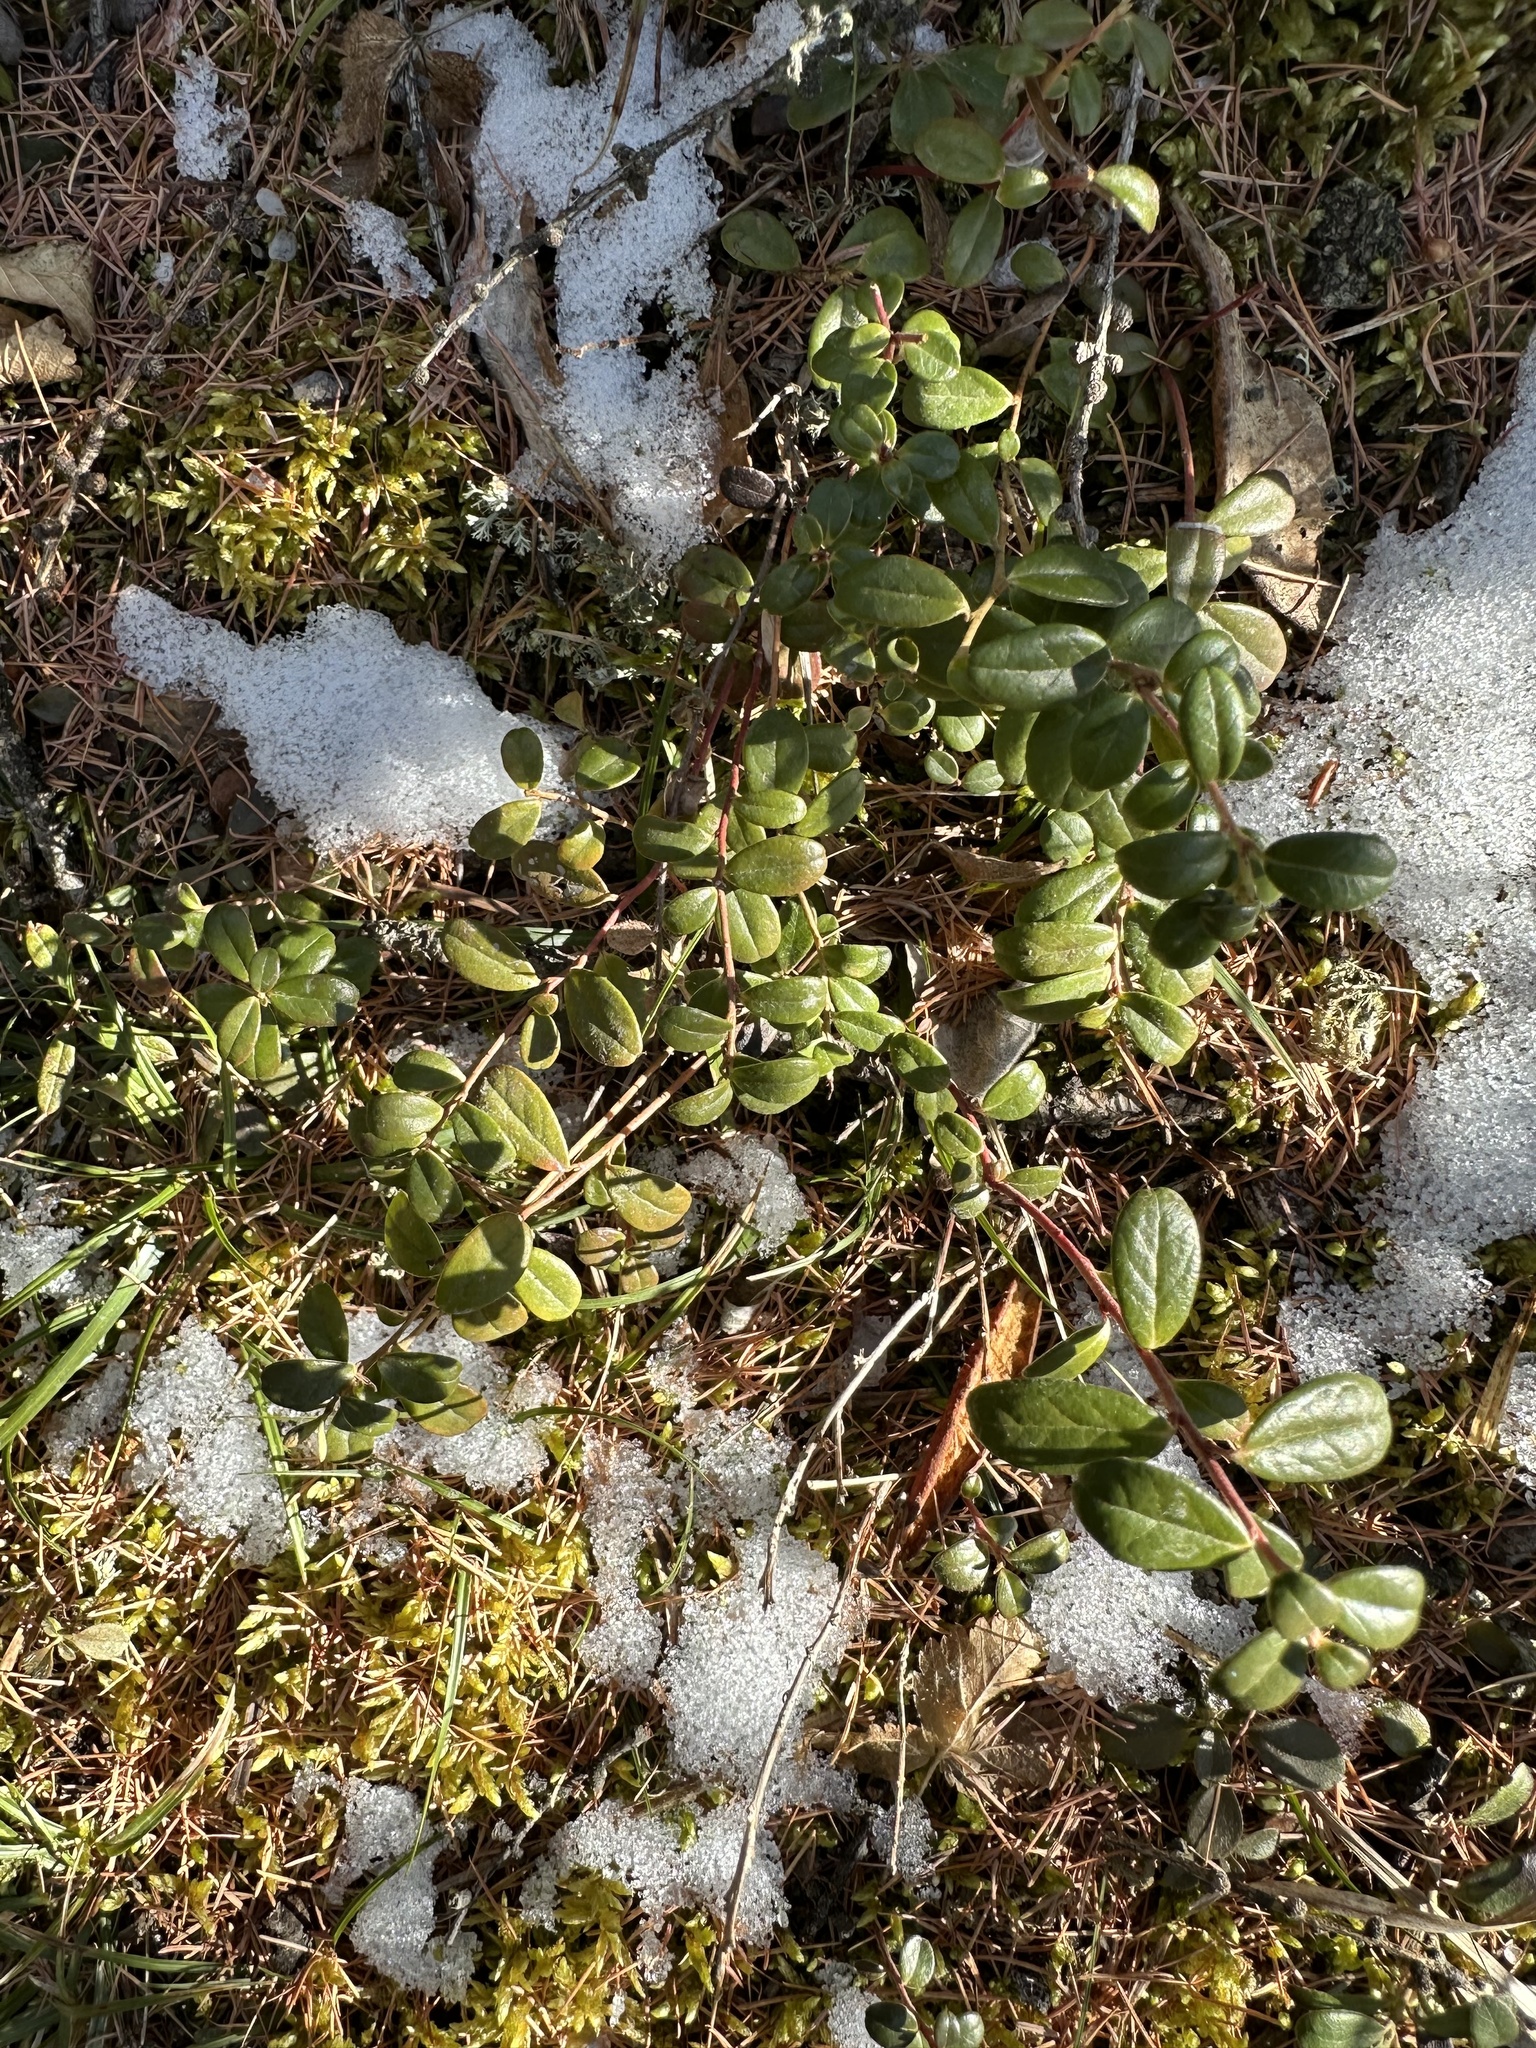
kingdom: Plantae
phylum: Tracheophyta
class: Magnoliopsida
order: Ericales
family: Ericaceae
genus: Vaccinium
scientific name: Vaccinium vitis-idaea
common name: Cowberry
